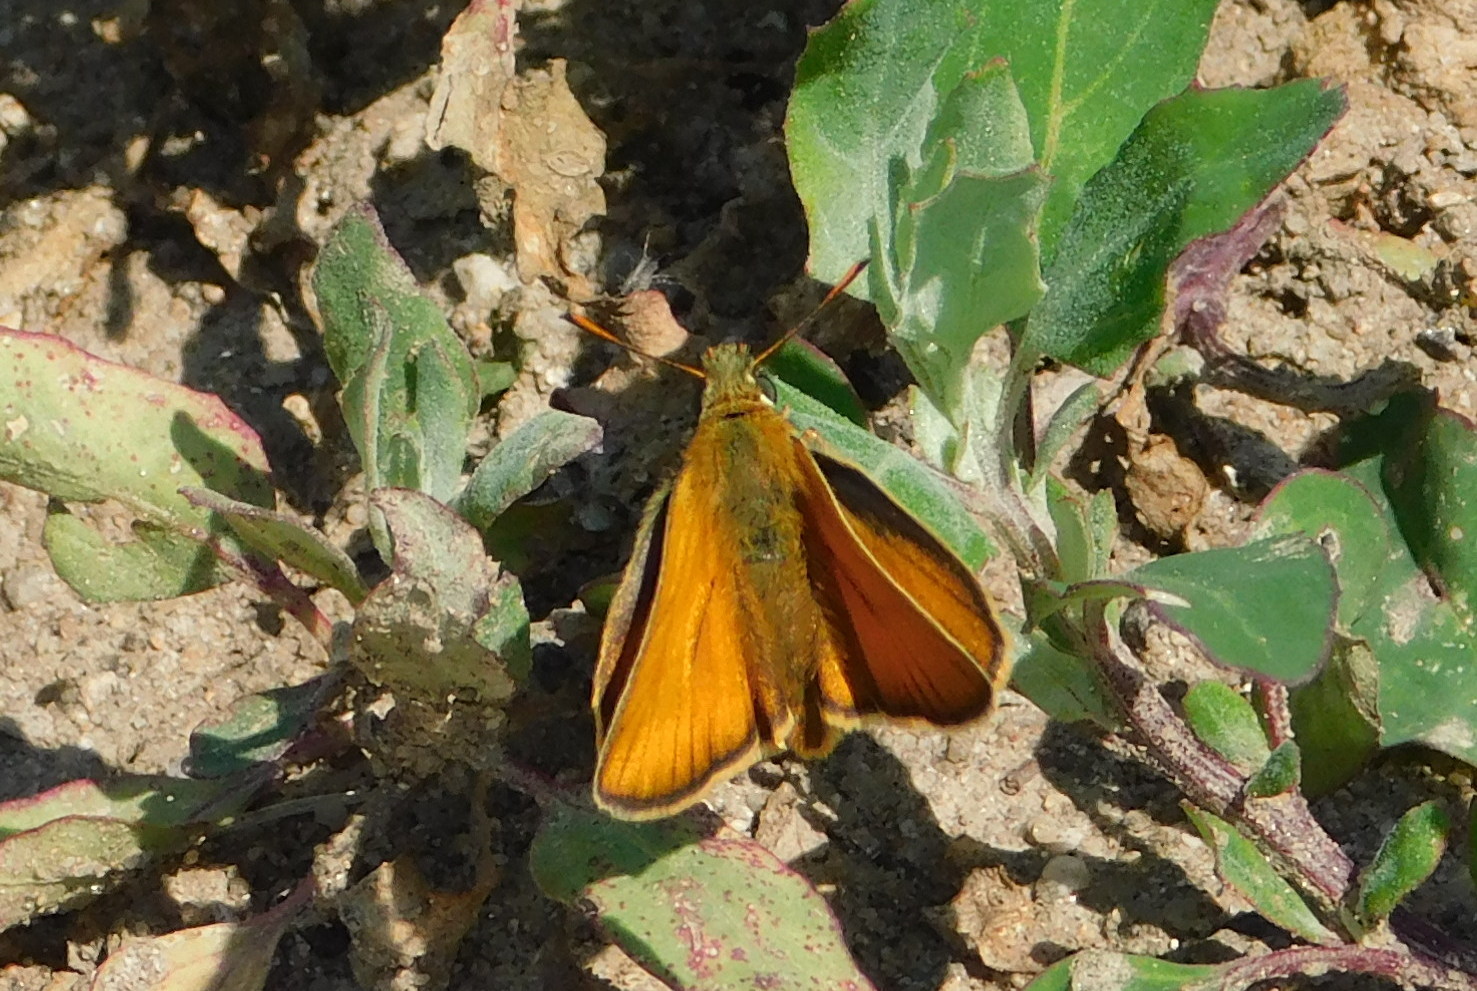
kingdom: Animalia
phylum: Arthropoda
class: Insecta
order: Lepidoptera
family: Hesperiidae
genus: Thymelicus
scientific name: Thymelicus sylvestris
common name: Small skipper
